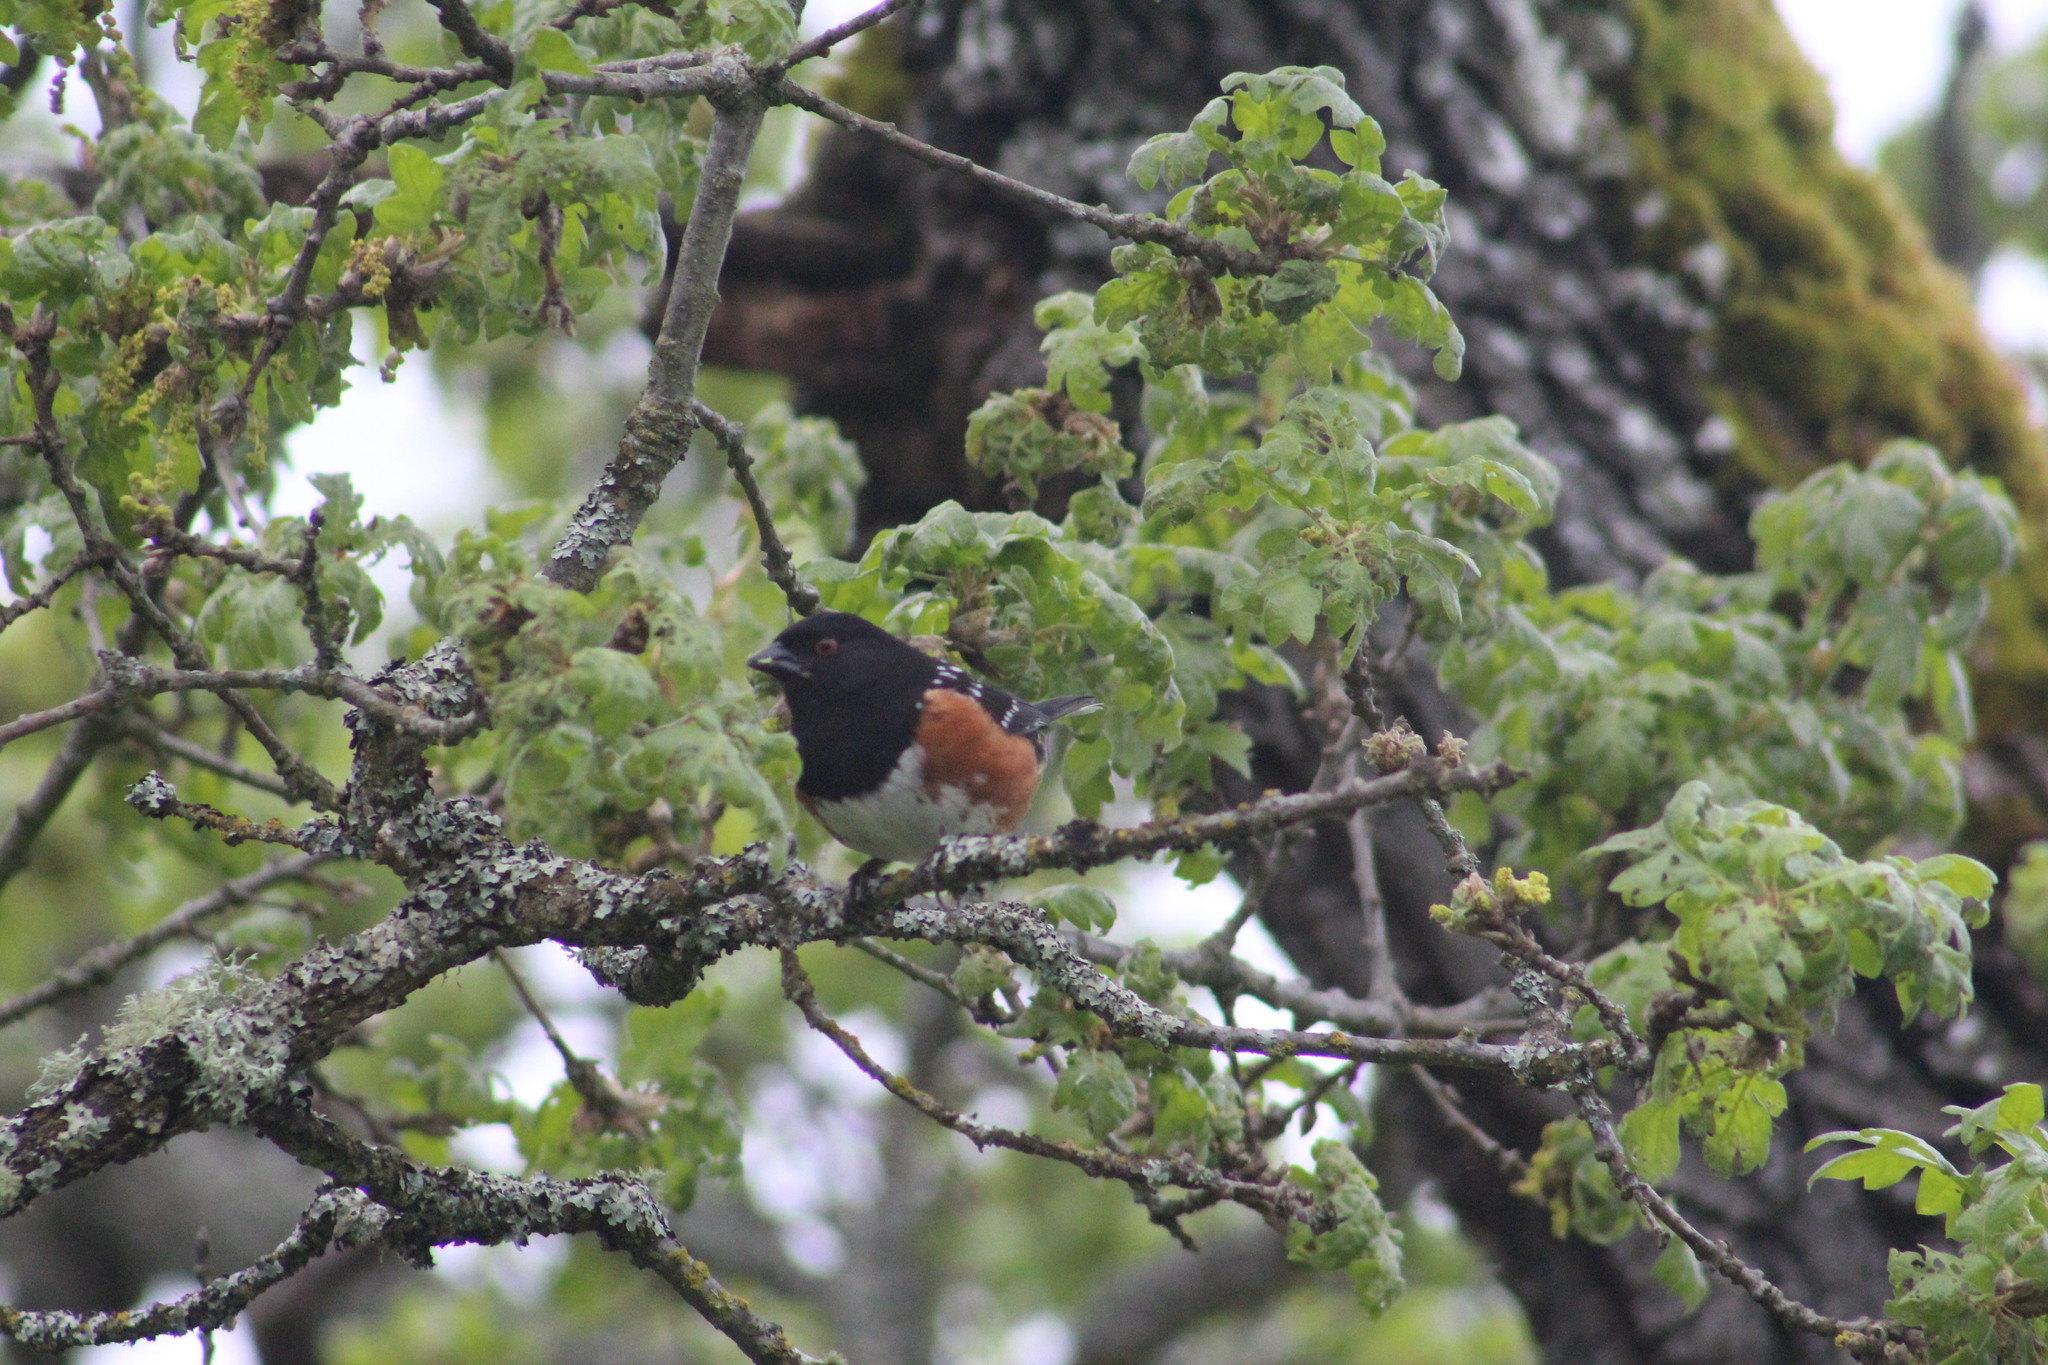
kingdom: Animalia
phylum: Chordata
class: Aves
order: Passeriformes
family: Passerellidae
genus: Pipilo
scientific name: Pipilo maculatus
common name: Spotted towhee
